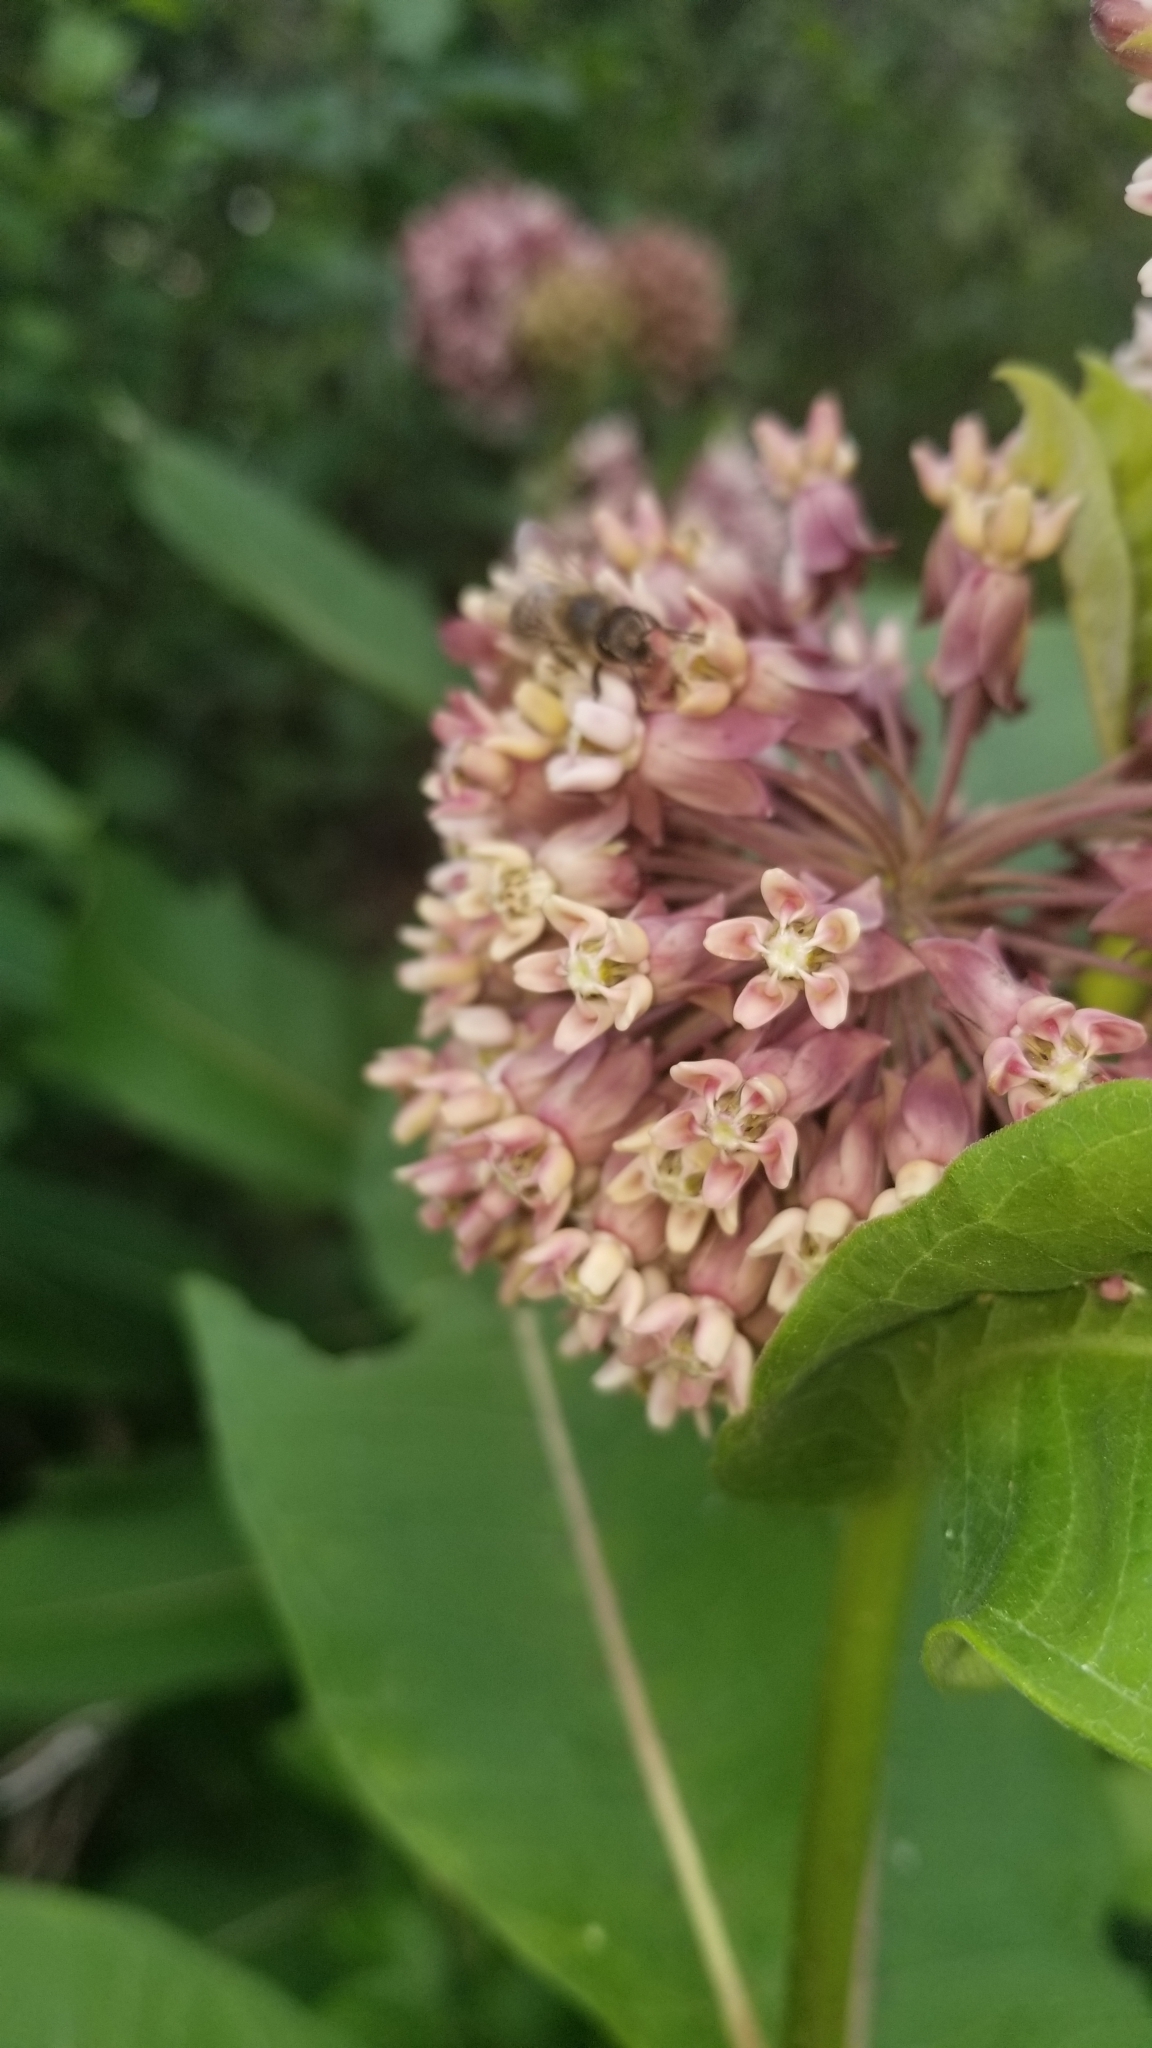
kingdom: Plantae
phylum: Tracheophyta
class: Magnoliopsida
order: Gentianales
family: Apocynaceae
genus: Asclepias
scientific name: Asclepias syriaca
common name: Common milkweed
